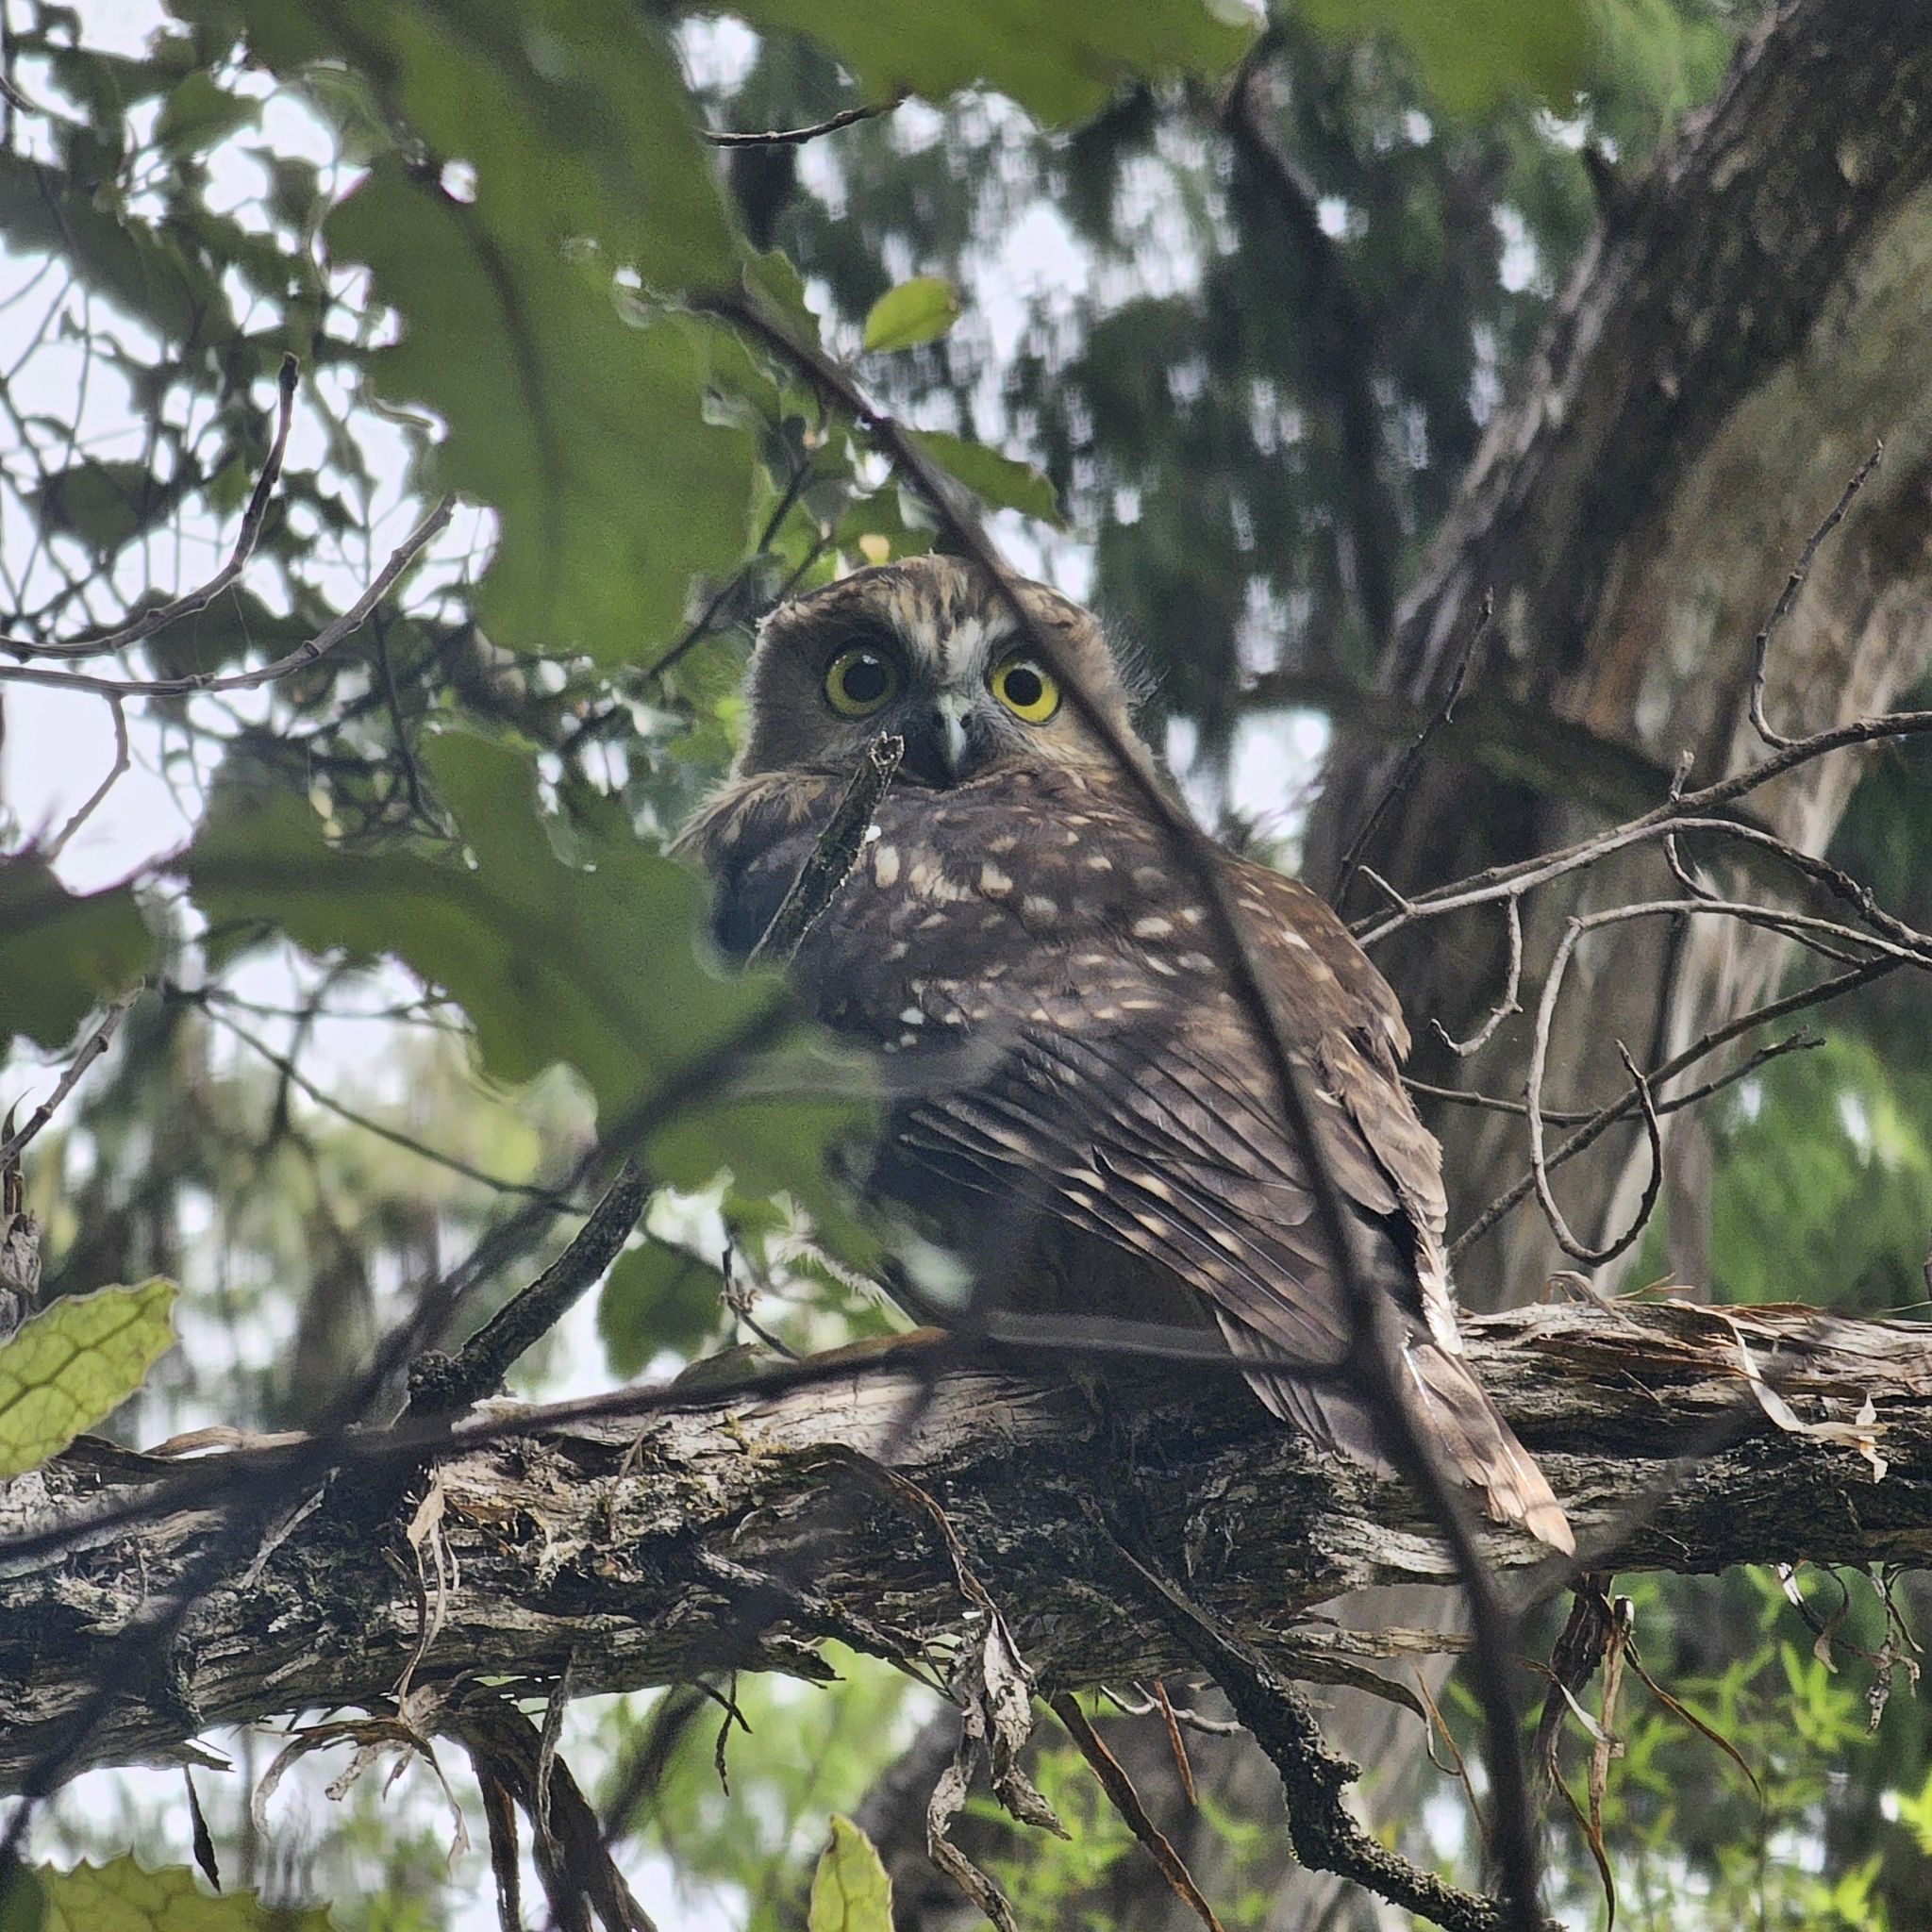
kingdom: Animalia
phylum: Chordata
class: Aves
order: Strigiformes
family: Strigidae
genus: Ninox
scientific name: Ninox novaeseelandiae
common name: Morepork
